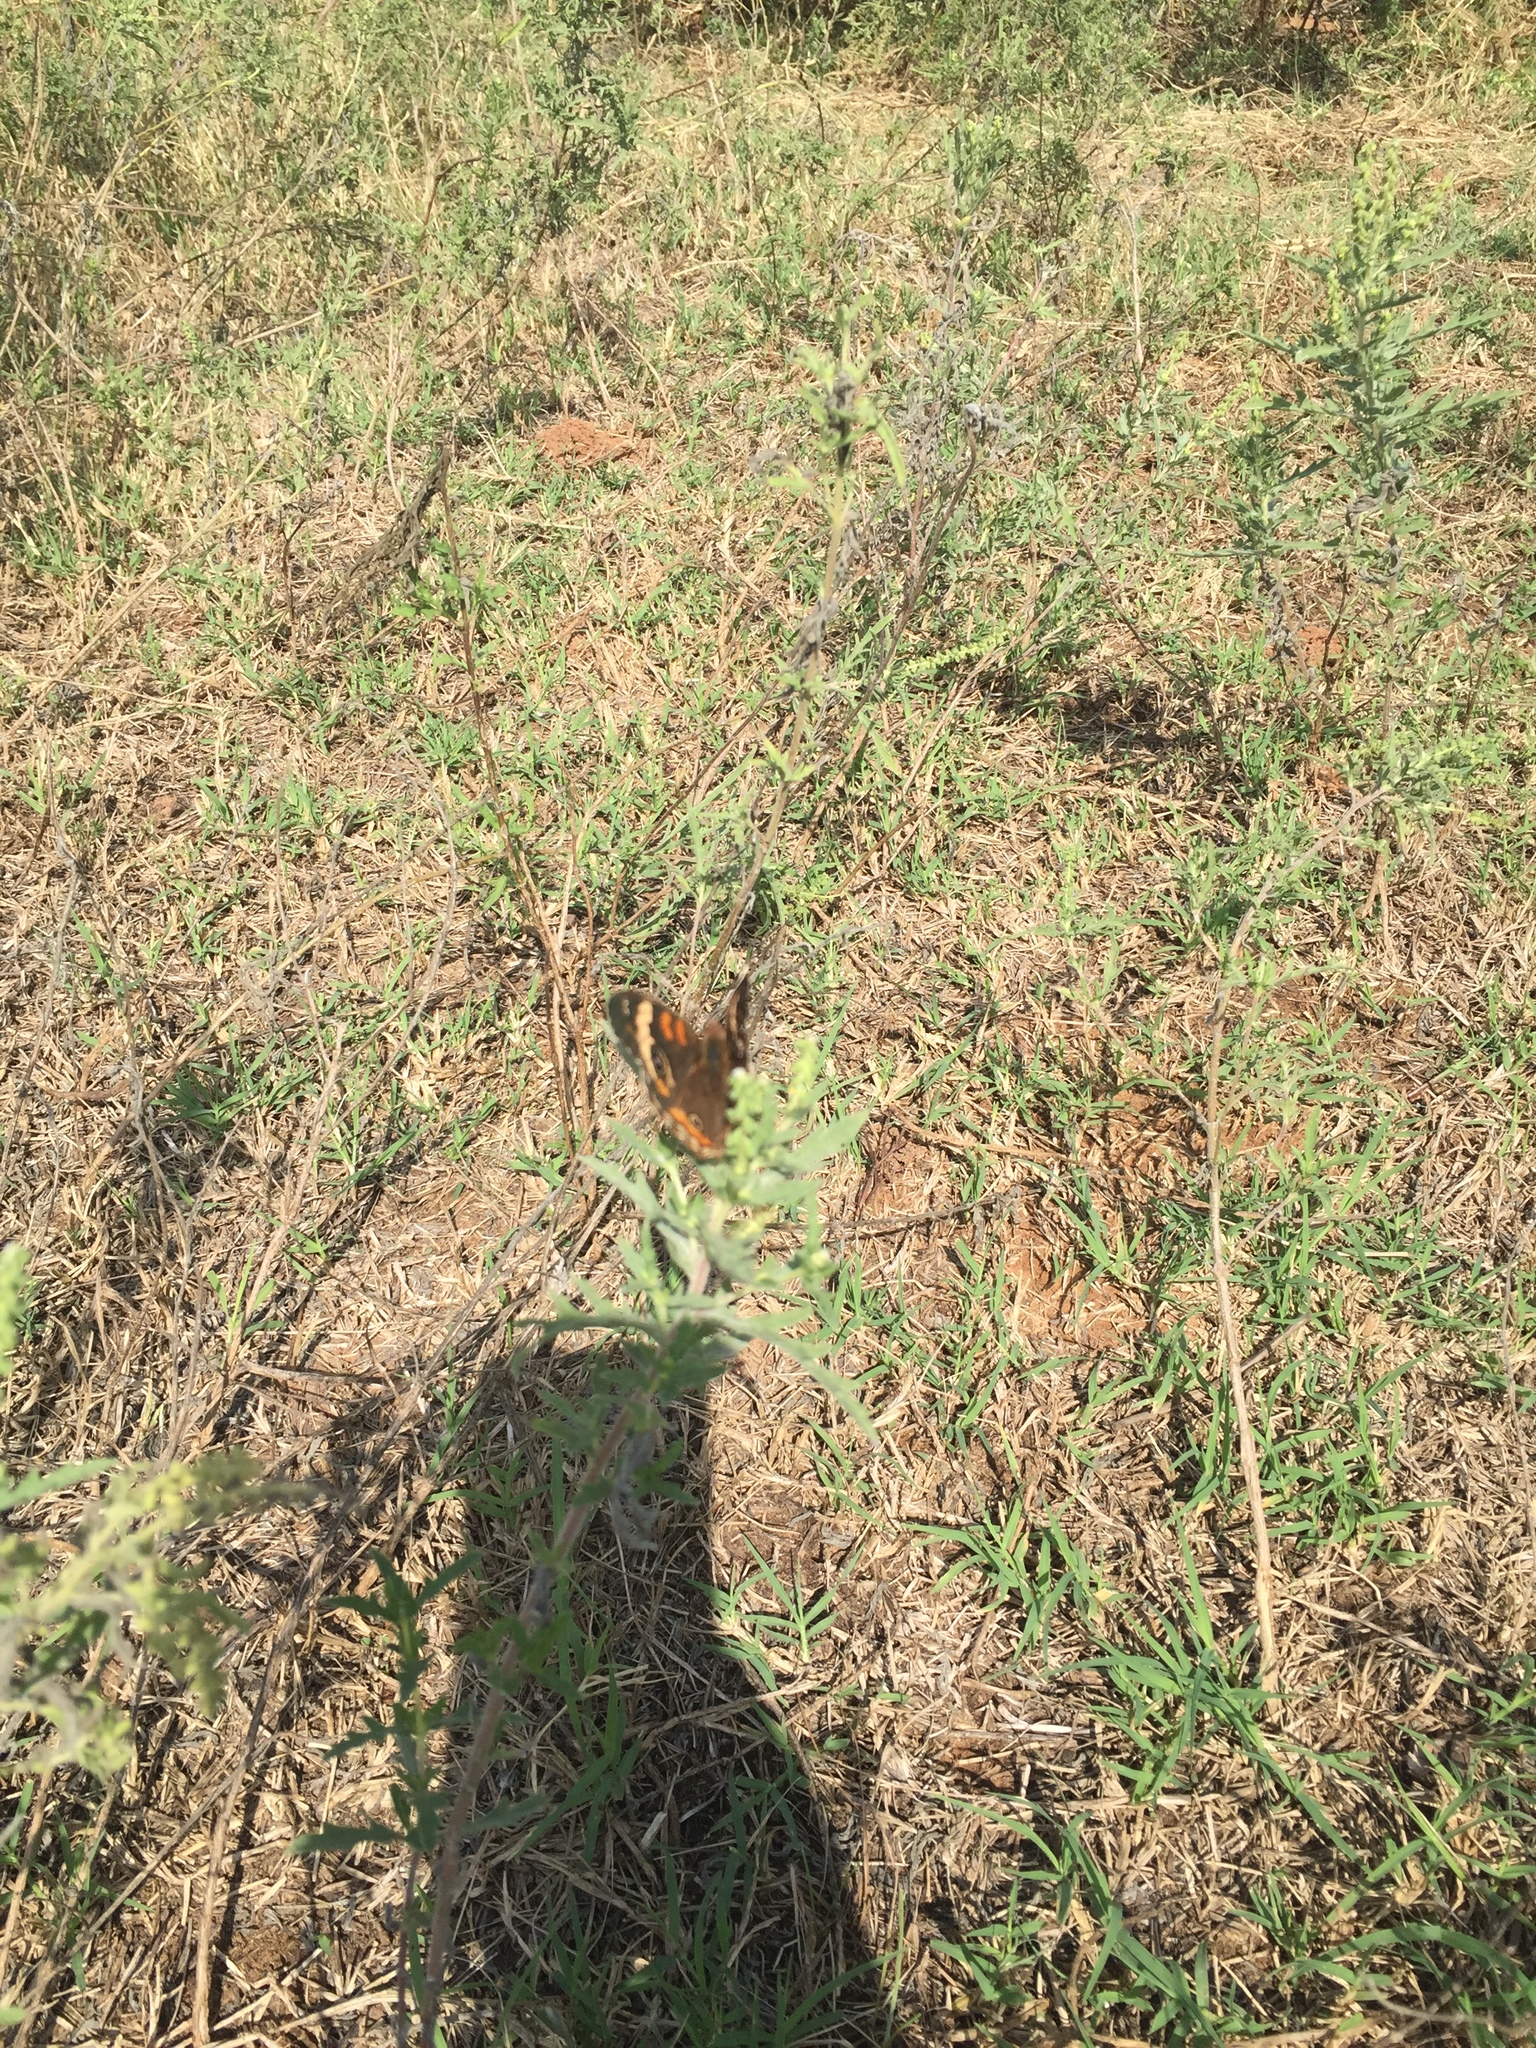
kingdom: Animalia
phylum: Arthropoda
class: Insecta
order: Lepidoptera
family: Nymphalidae
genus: Junonia
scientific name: Junonia coenia
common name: Common buckeye
